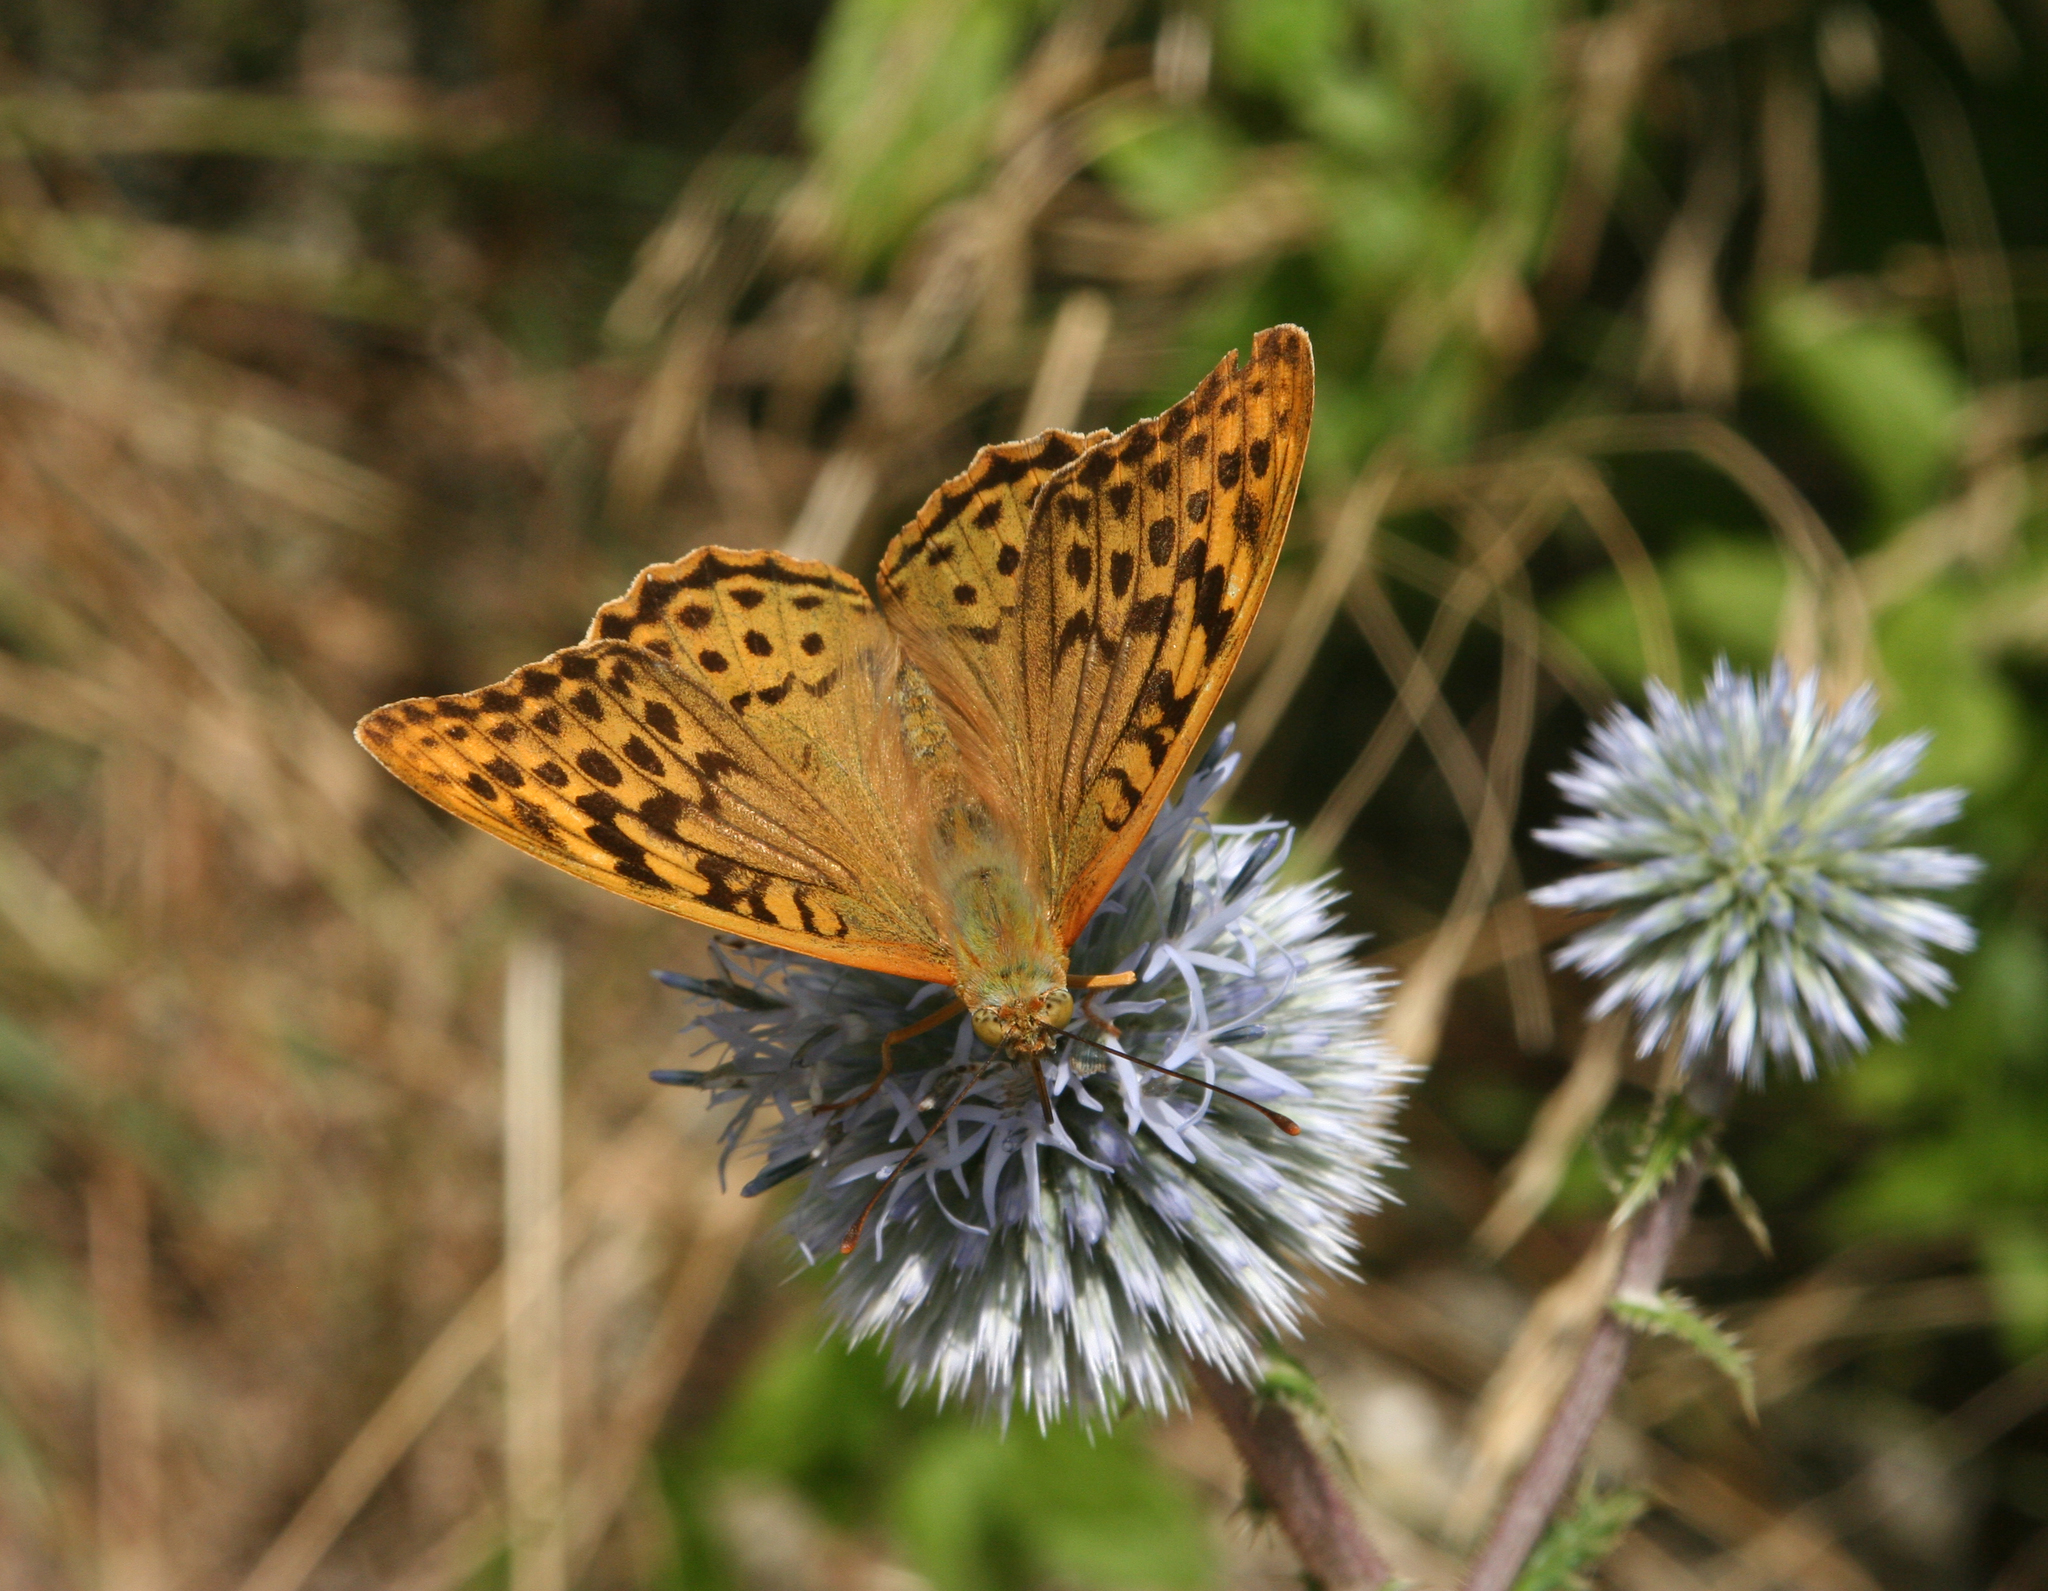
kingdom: Plantae
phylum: Tracheophyta
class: Magnoliopsida
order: Asterales
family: Asteraceae
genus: Echinops
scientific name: Echinops sphaerocephalus
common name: Glandular globe-thistle
